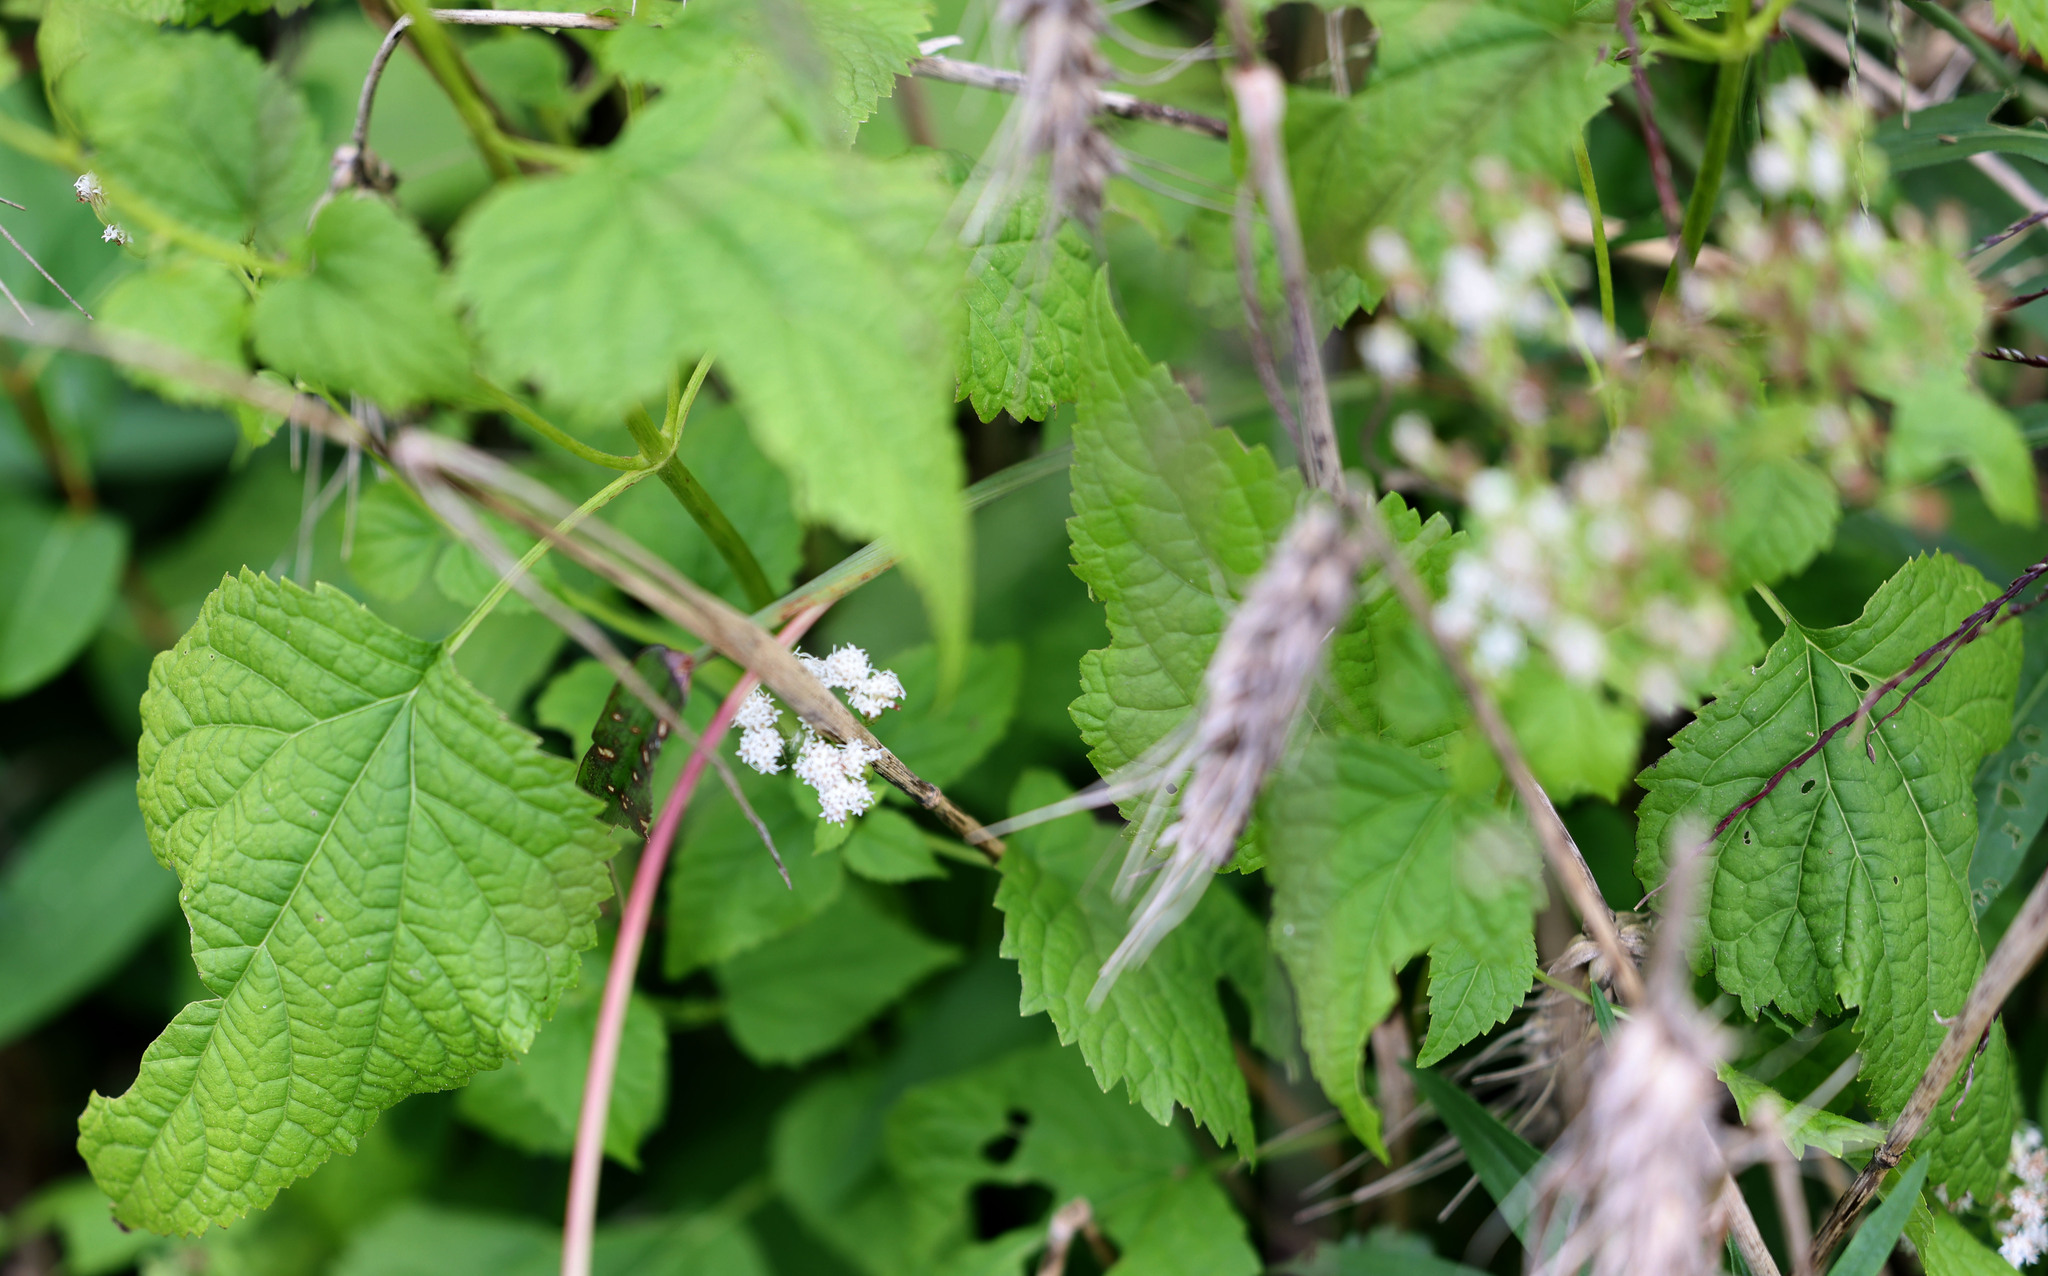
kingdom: Plantae
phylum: Tracheophyta
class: Magnoliopsida
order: Asterales
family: Asteraceae
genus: Ageratina
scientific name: Ageratina altissima
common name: White snakeroot
